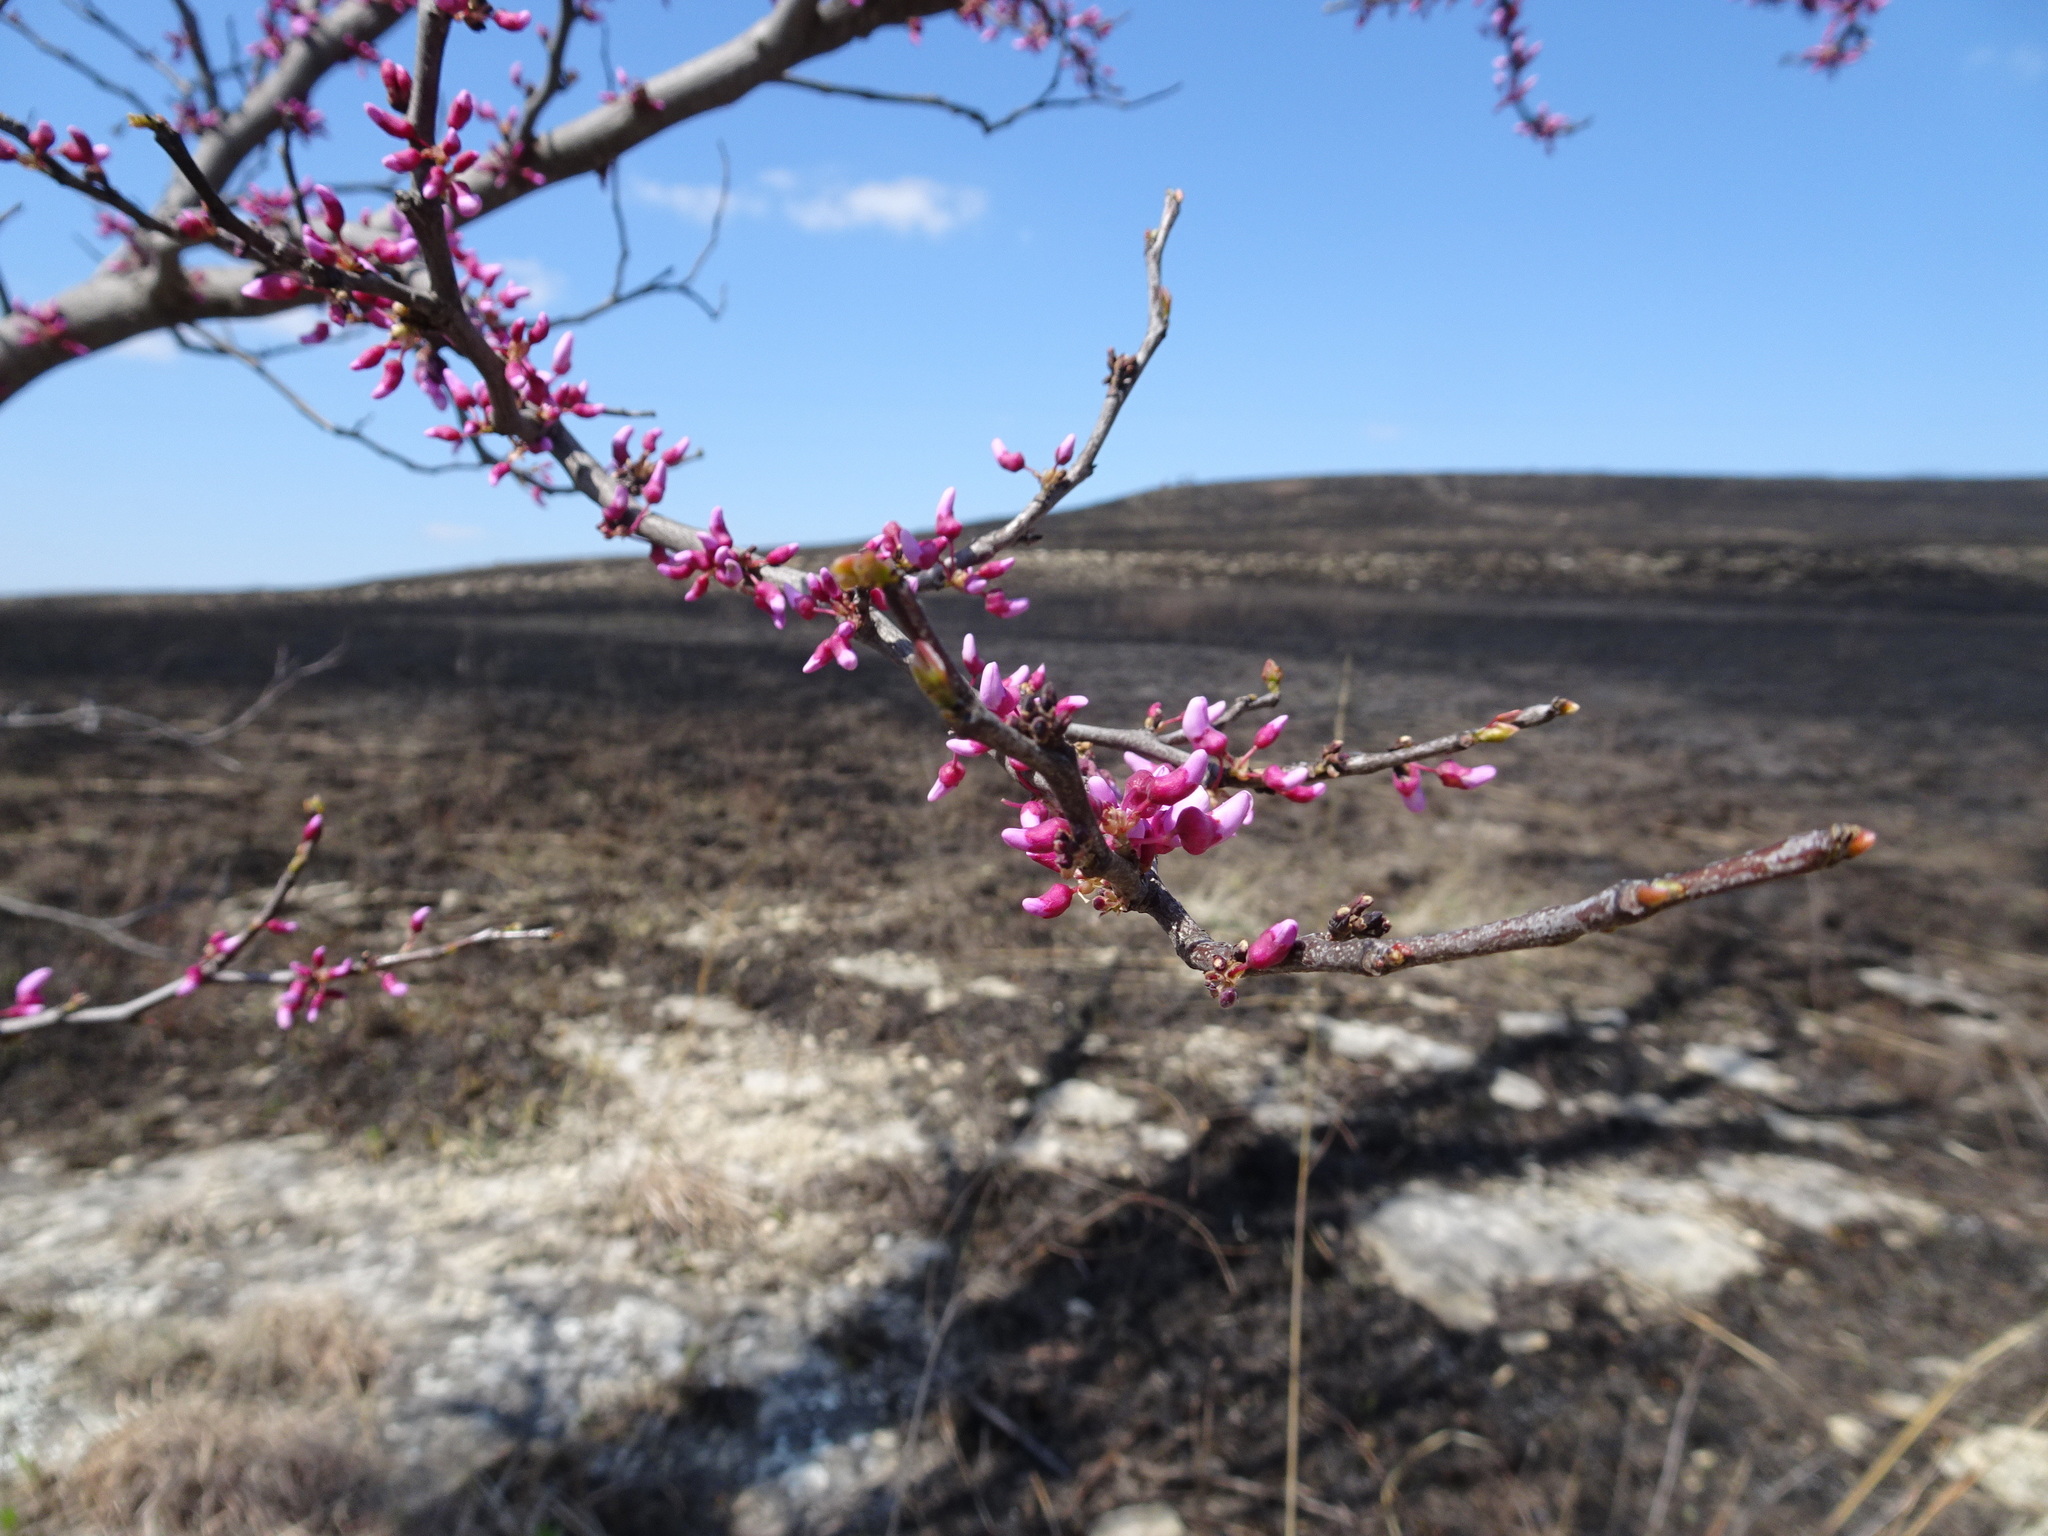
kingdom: Plantae
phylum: Tracheophyta
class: Magnoliopsida
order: Fabales
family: Fabaceae
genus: Cercis
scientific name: Cercis canadensis
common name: Eastern redbud
